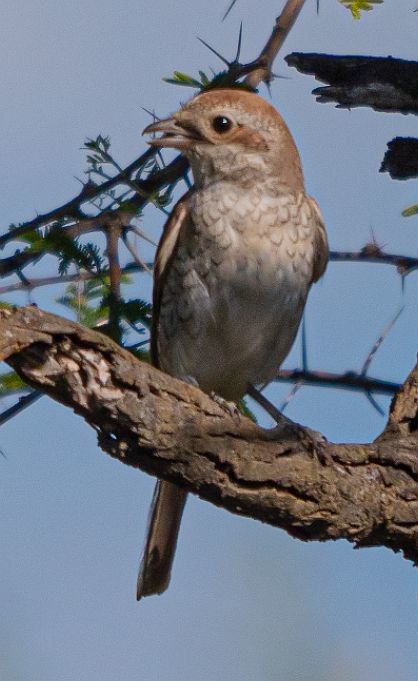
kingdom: Animalia
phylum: Chordata
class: Aves
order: Passeriformes
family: Laniidae
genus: Lanius
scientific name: Lanius collurio
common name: Red-backed shrike
